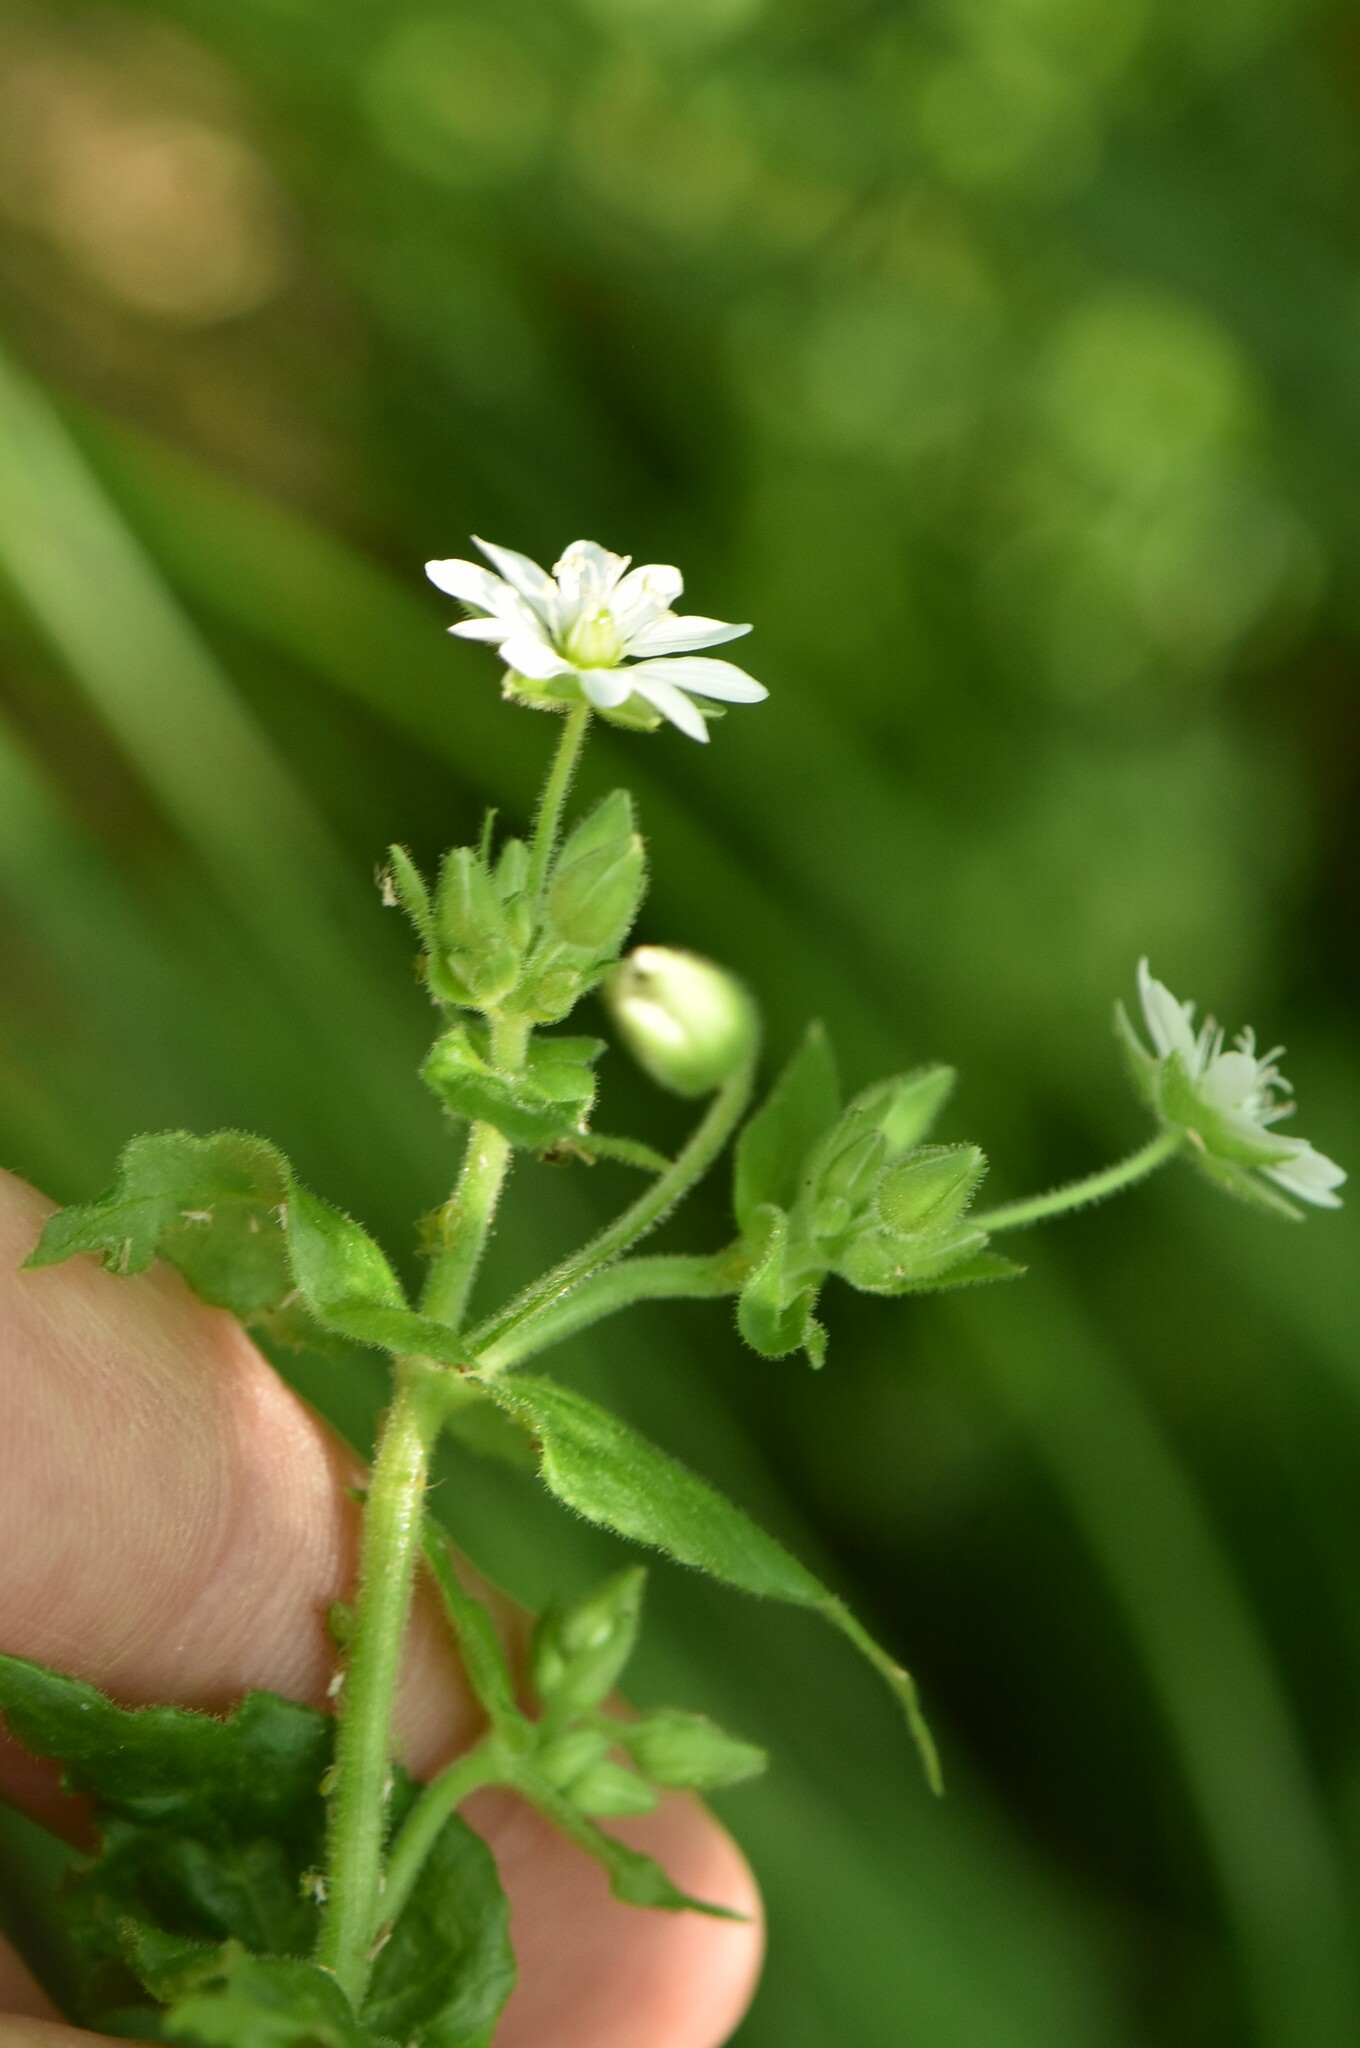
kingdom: Plantae
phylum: Tracheophyta
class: Magnoliopsida
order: Caryophyllales
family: Caryophyllaceae
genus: Stellaria
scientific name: Stellaria aquatica
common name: Water chickweed
